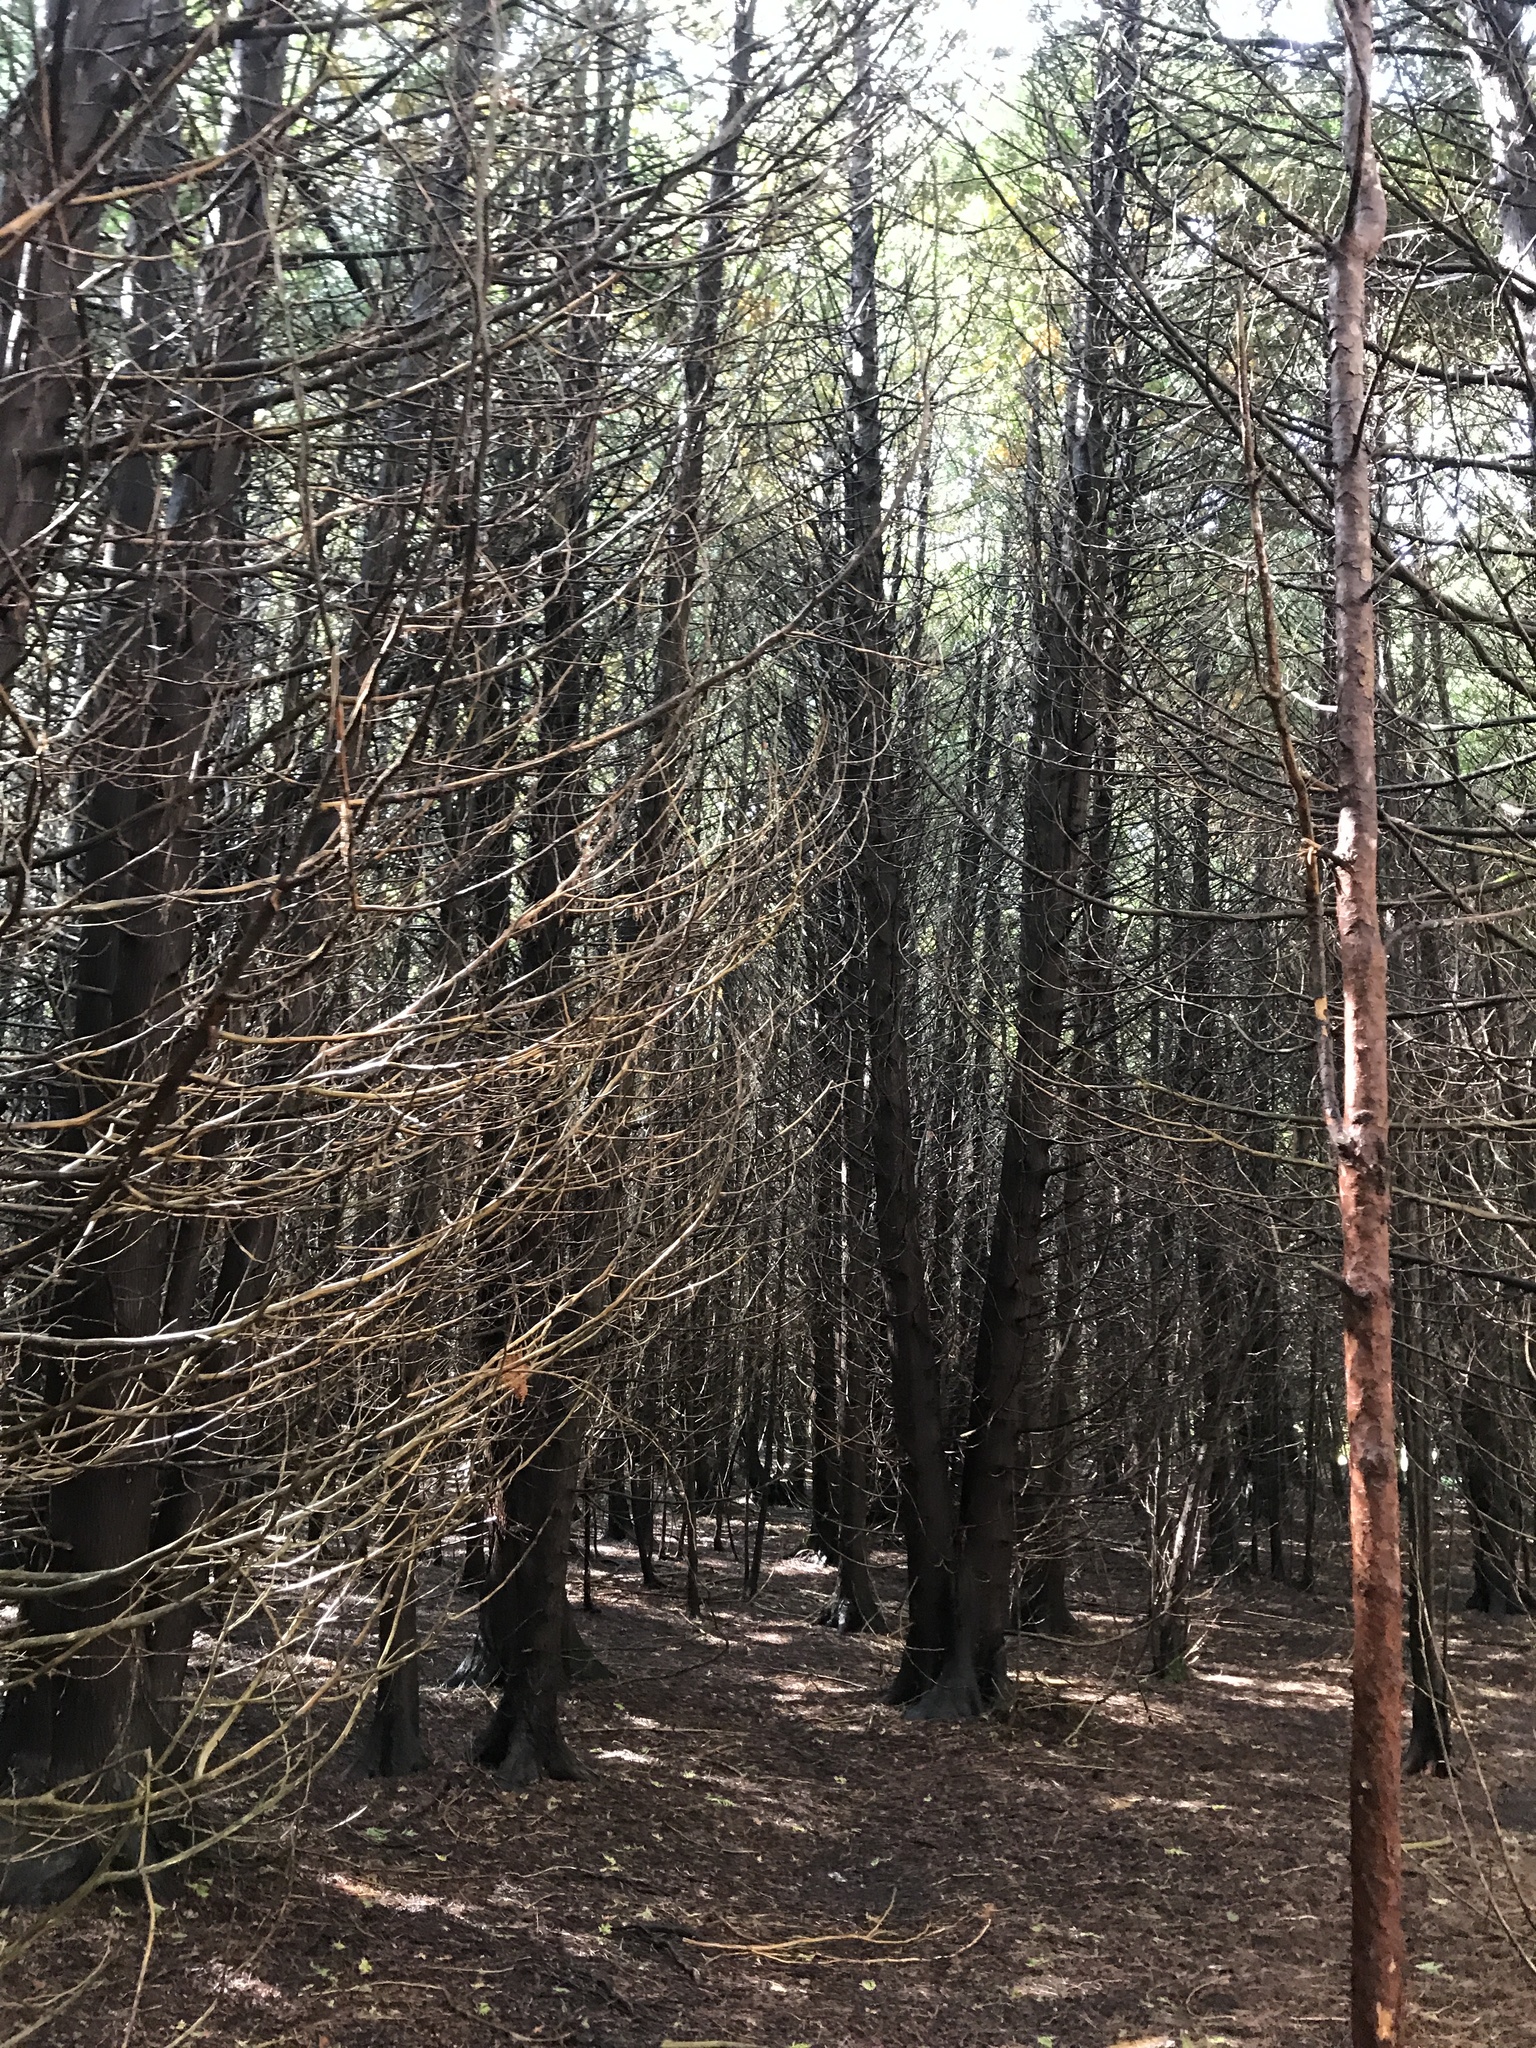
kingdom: Plantae
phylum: Tracheophyta
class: Pinopsida
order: Pinales
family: Cupressaceae
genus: Thuja
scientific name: Thuja occidentalis
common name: Northern white-cedar
